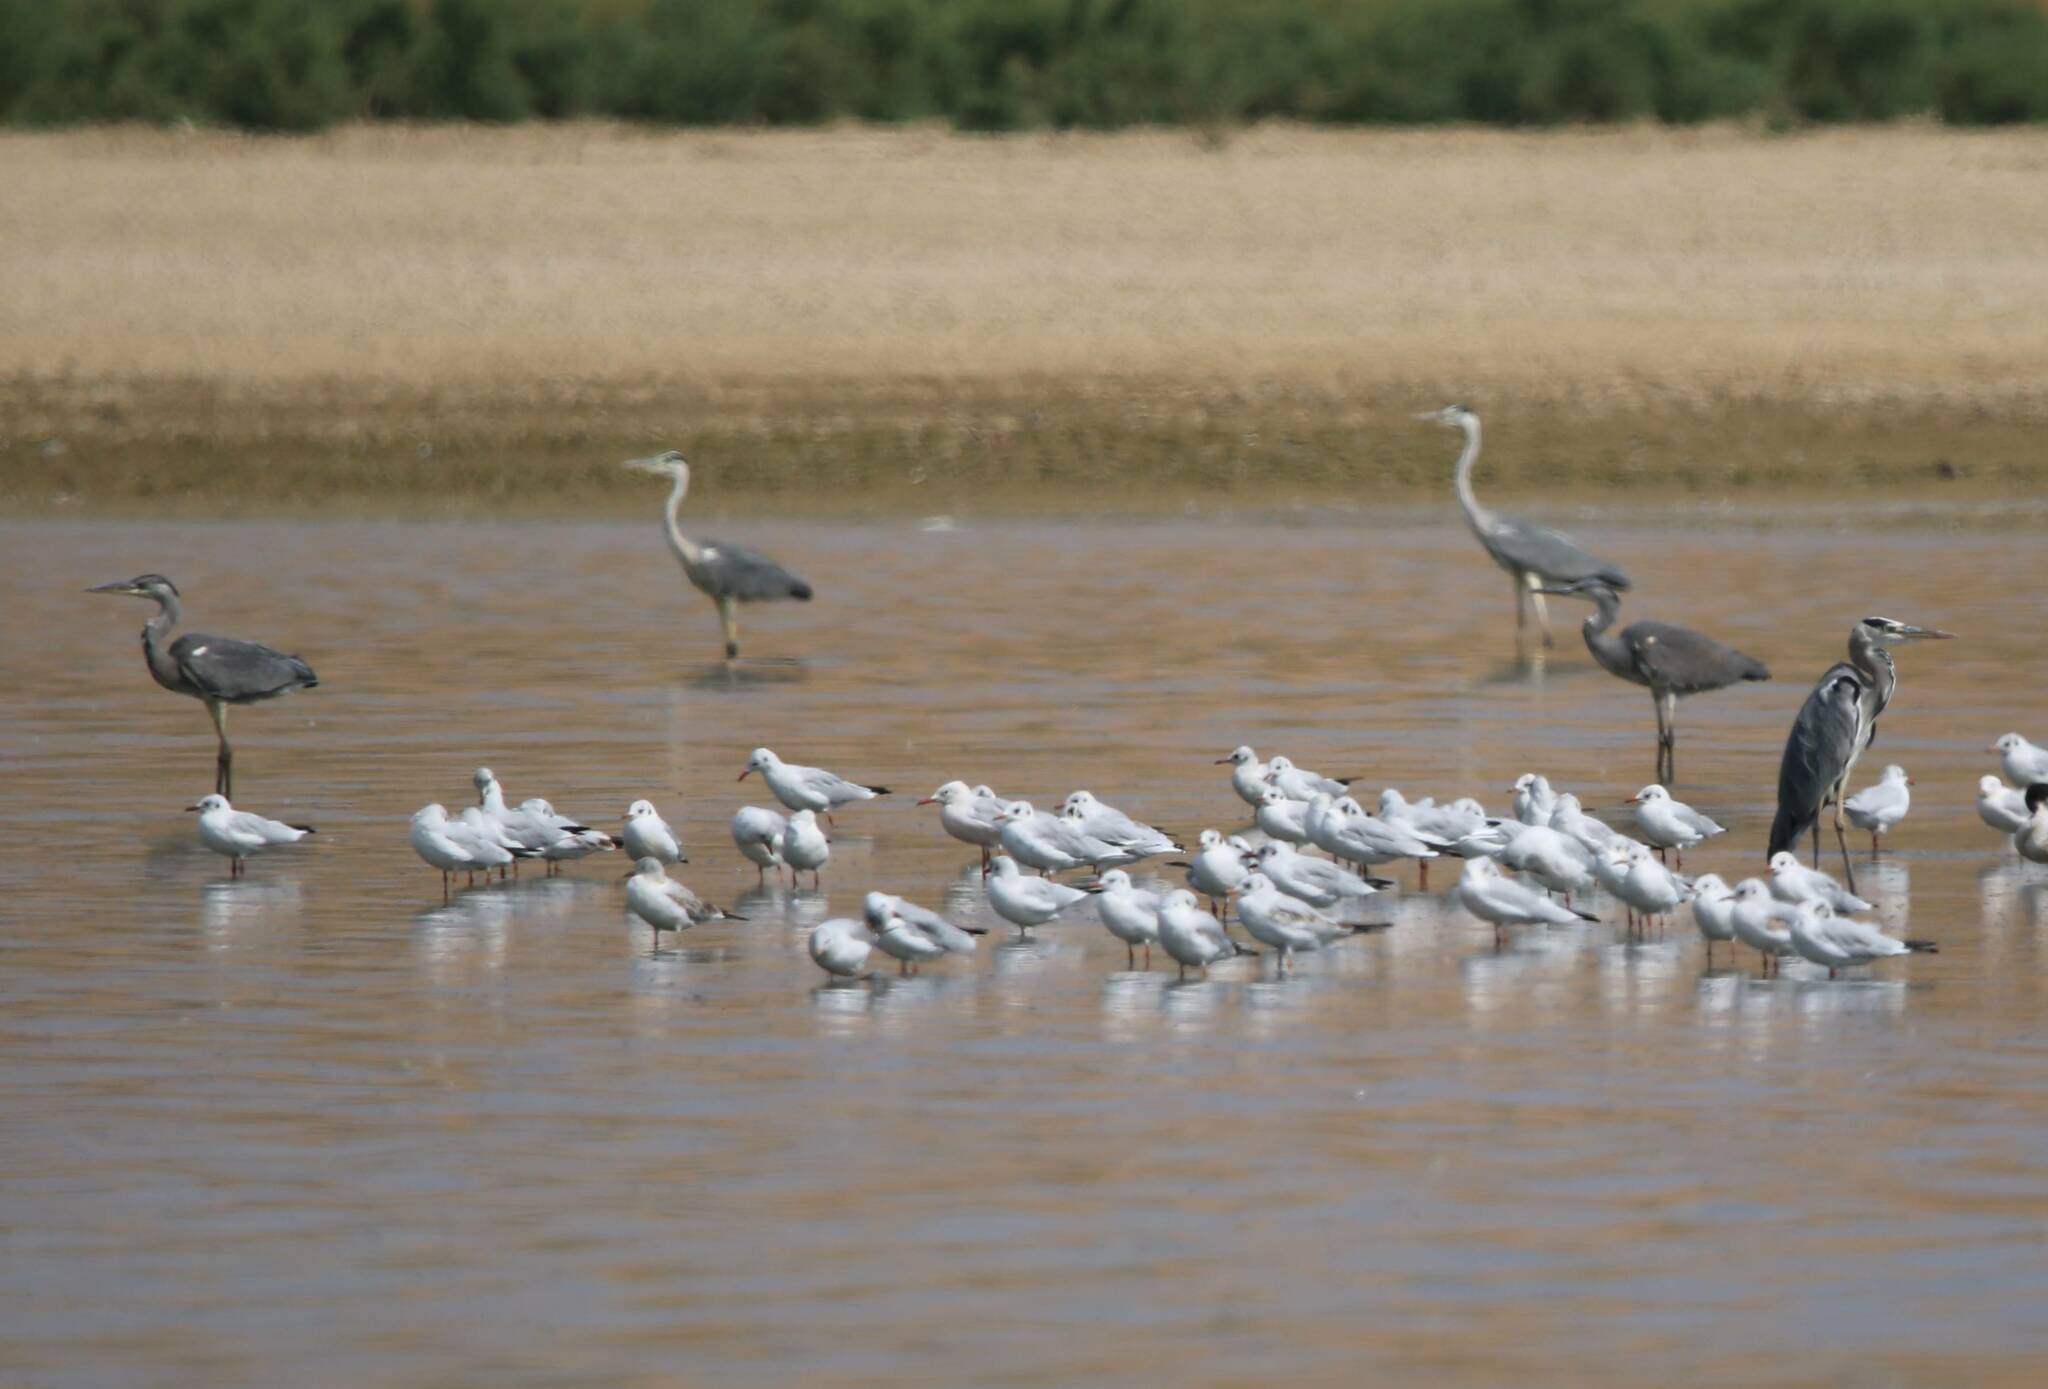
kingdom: Animalia
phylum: Chordata
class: Aves
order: Pelecaniformes
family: Ardeidae
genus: Ardea
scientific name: Ardea cinerea
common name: Grey heron
